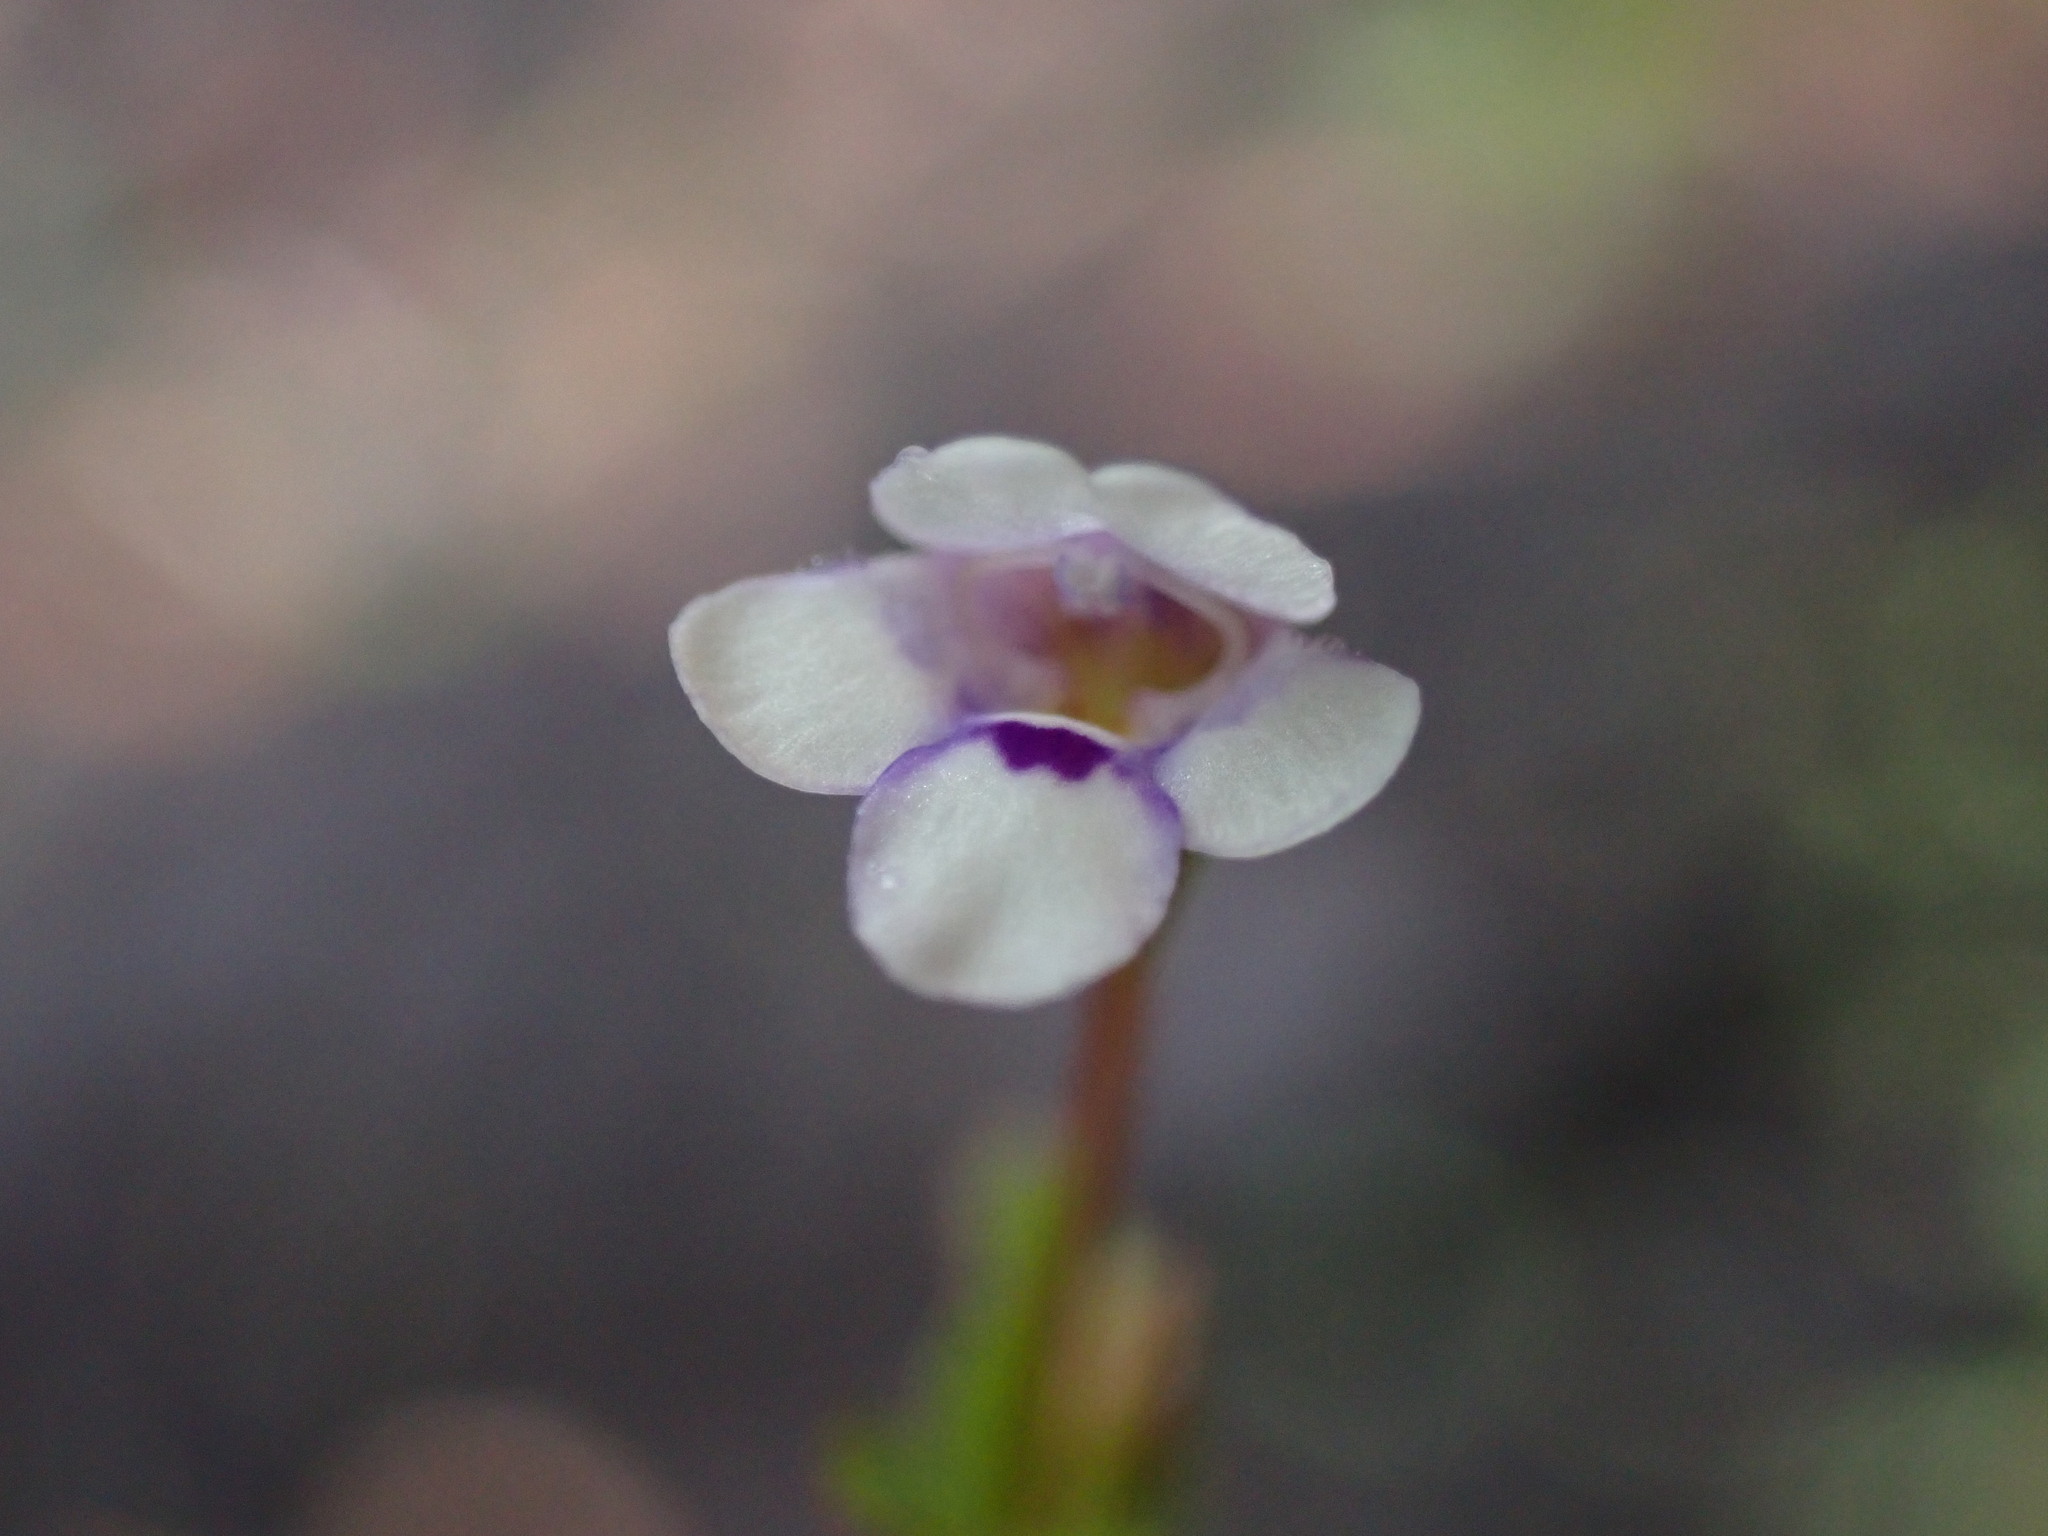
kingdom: Plantae
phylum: Tracheophyta
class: Magnoliopsida
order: Lamiales
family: Linderniaceae
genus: Torenia
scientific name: Torenia crustacea
